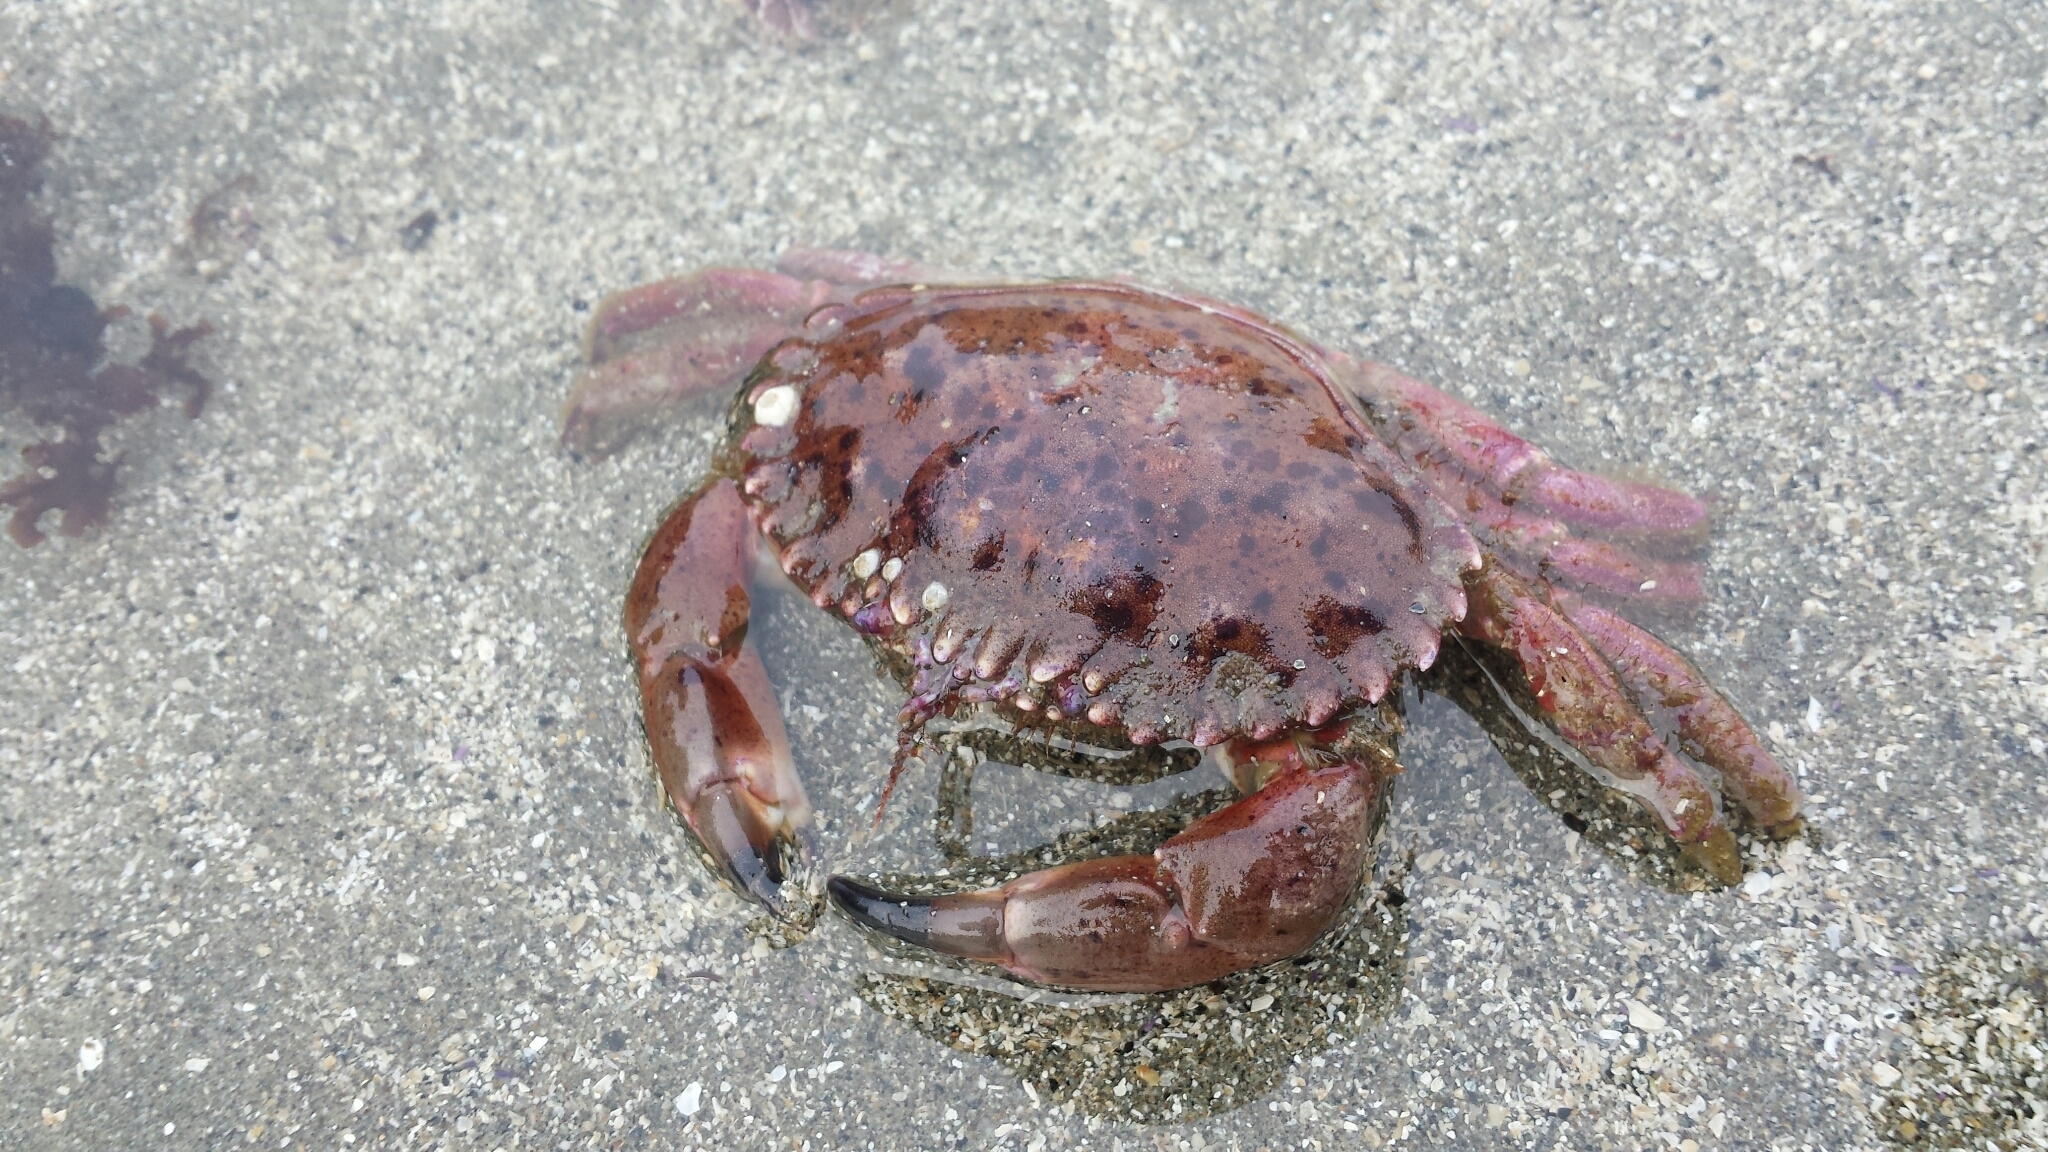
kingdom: Animalia
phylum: Arthropoda
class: Malacostraca
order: Decapoda
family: Cancridae
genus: Romaleon
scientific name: Romaleon antennarium
